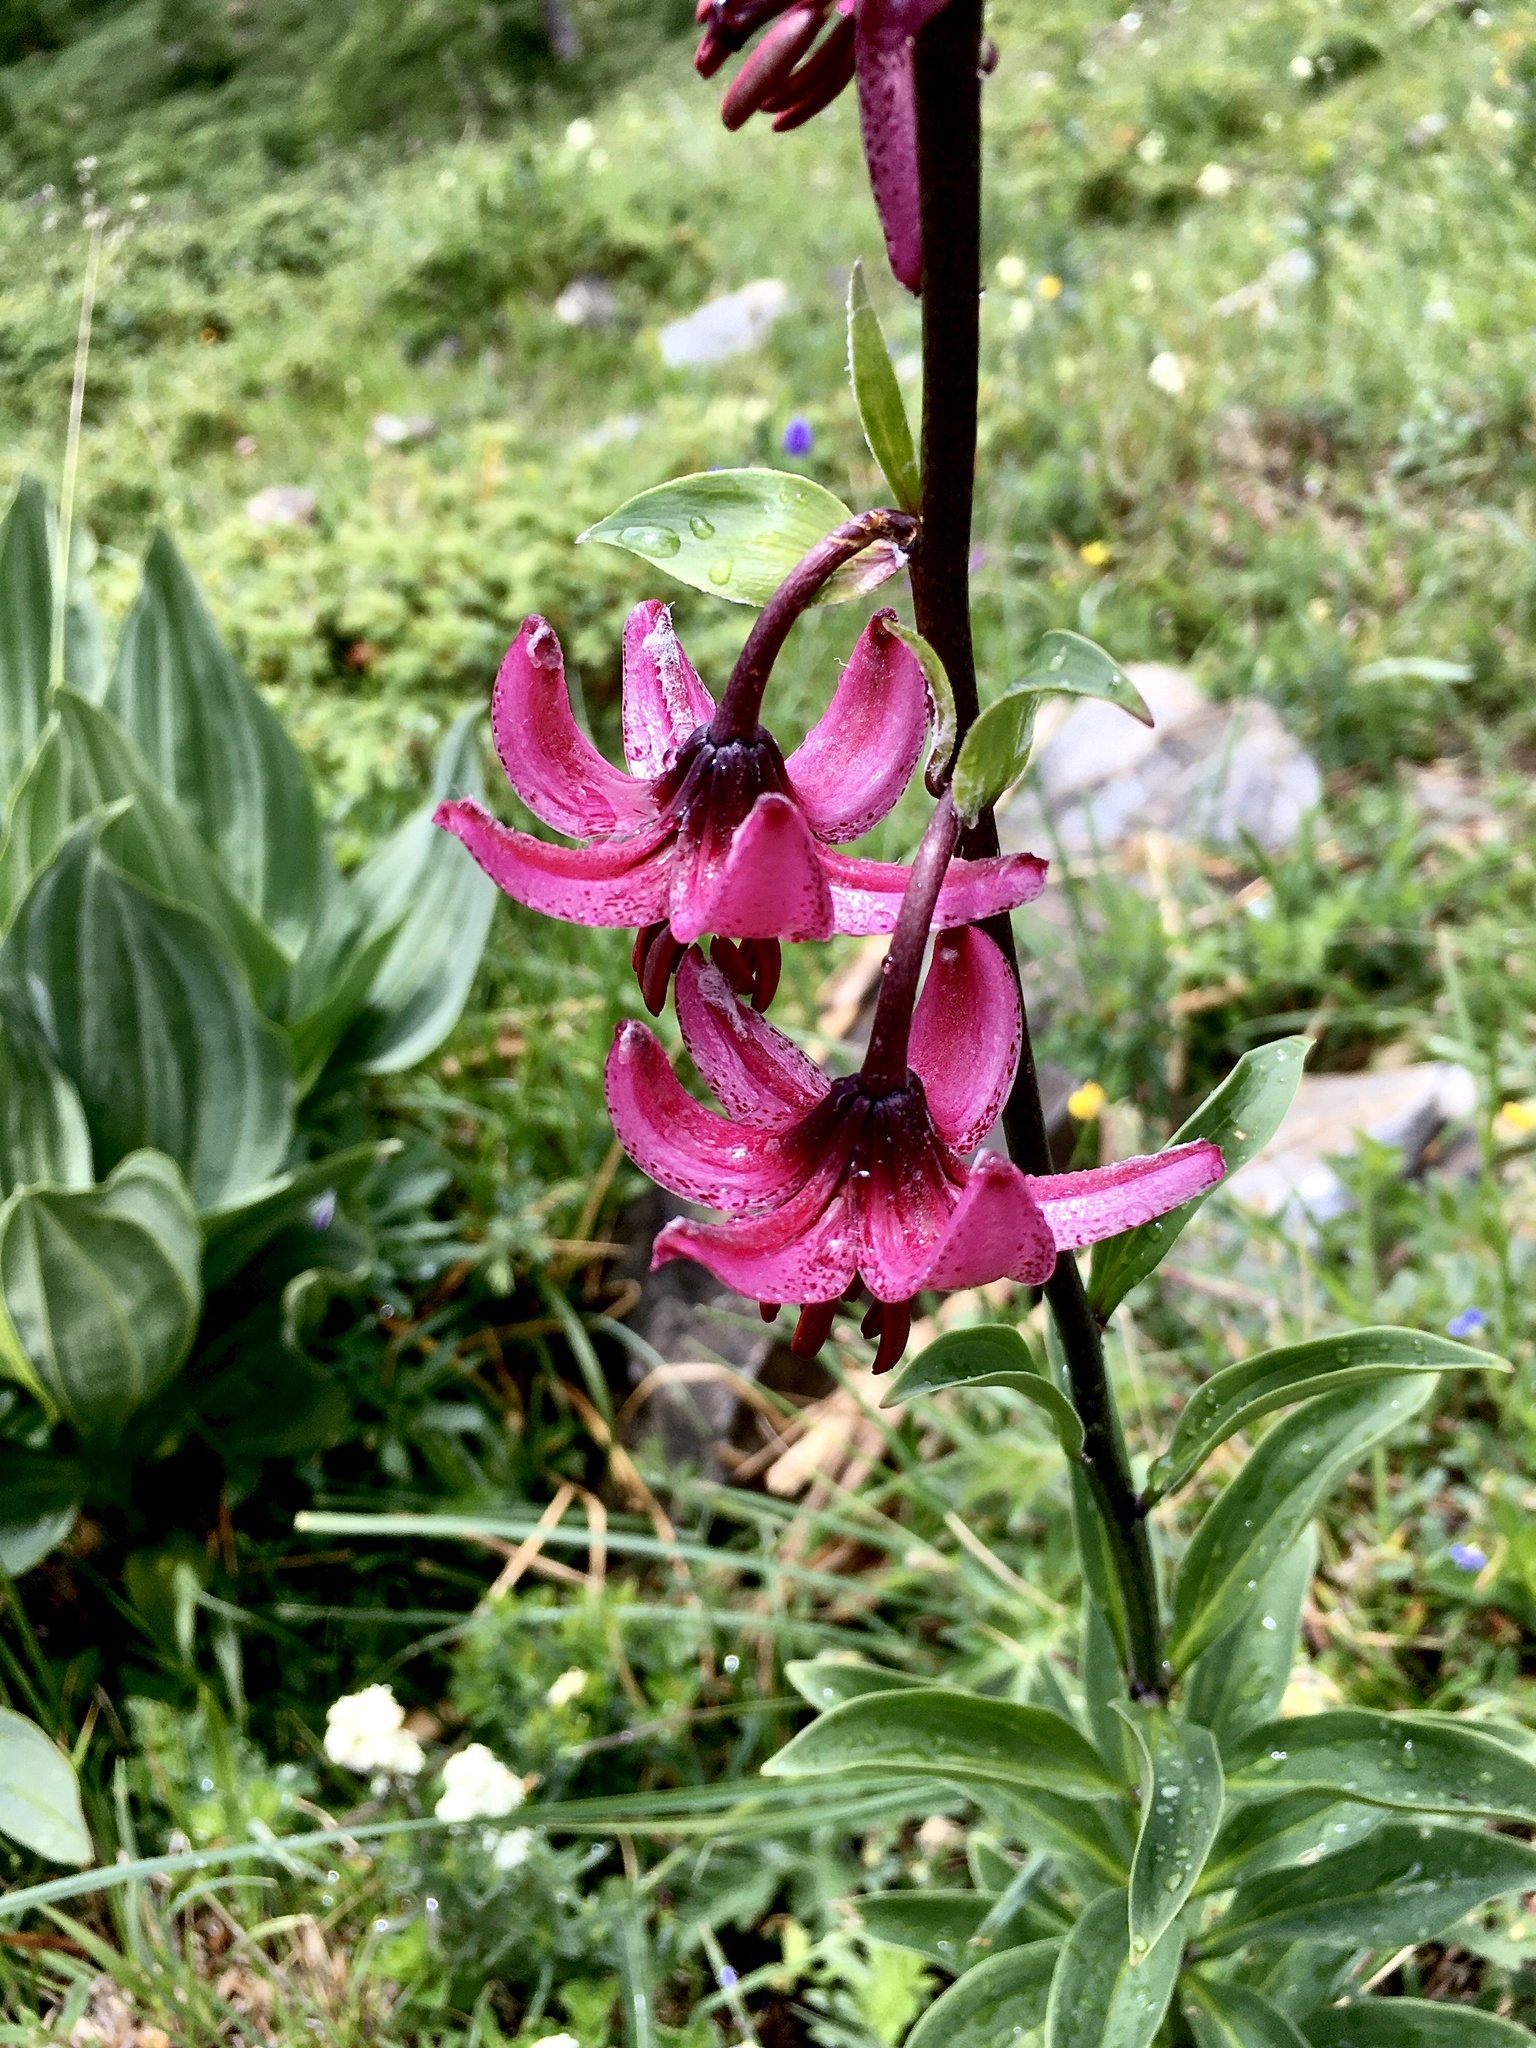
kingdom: Plantae
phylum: Tracheophyta
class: Liliopsida
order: Liliales
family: Liliaceae
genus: Lilium
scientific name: Lilium martagon
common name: Martagon lily
